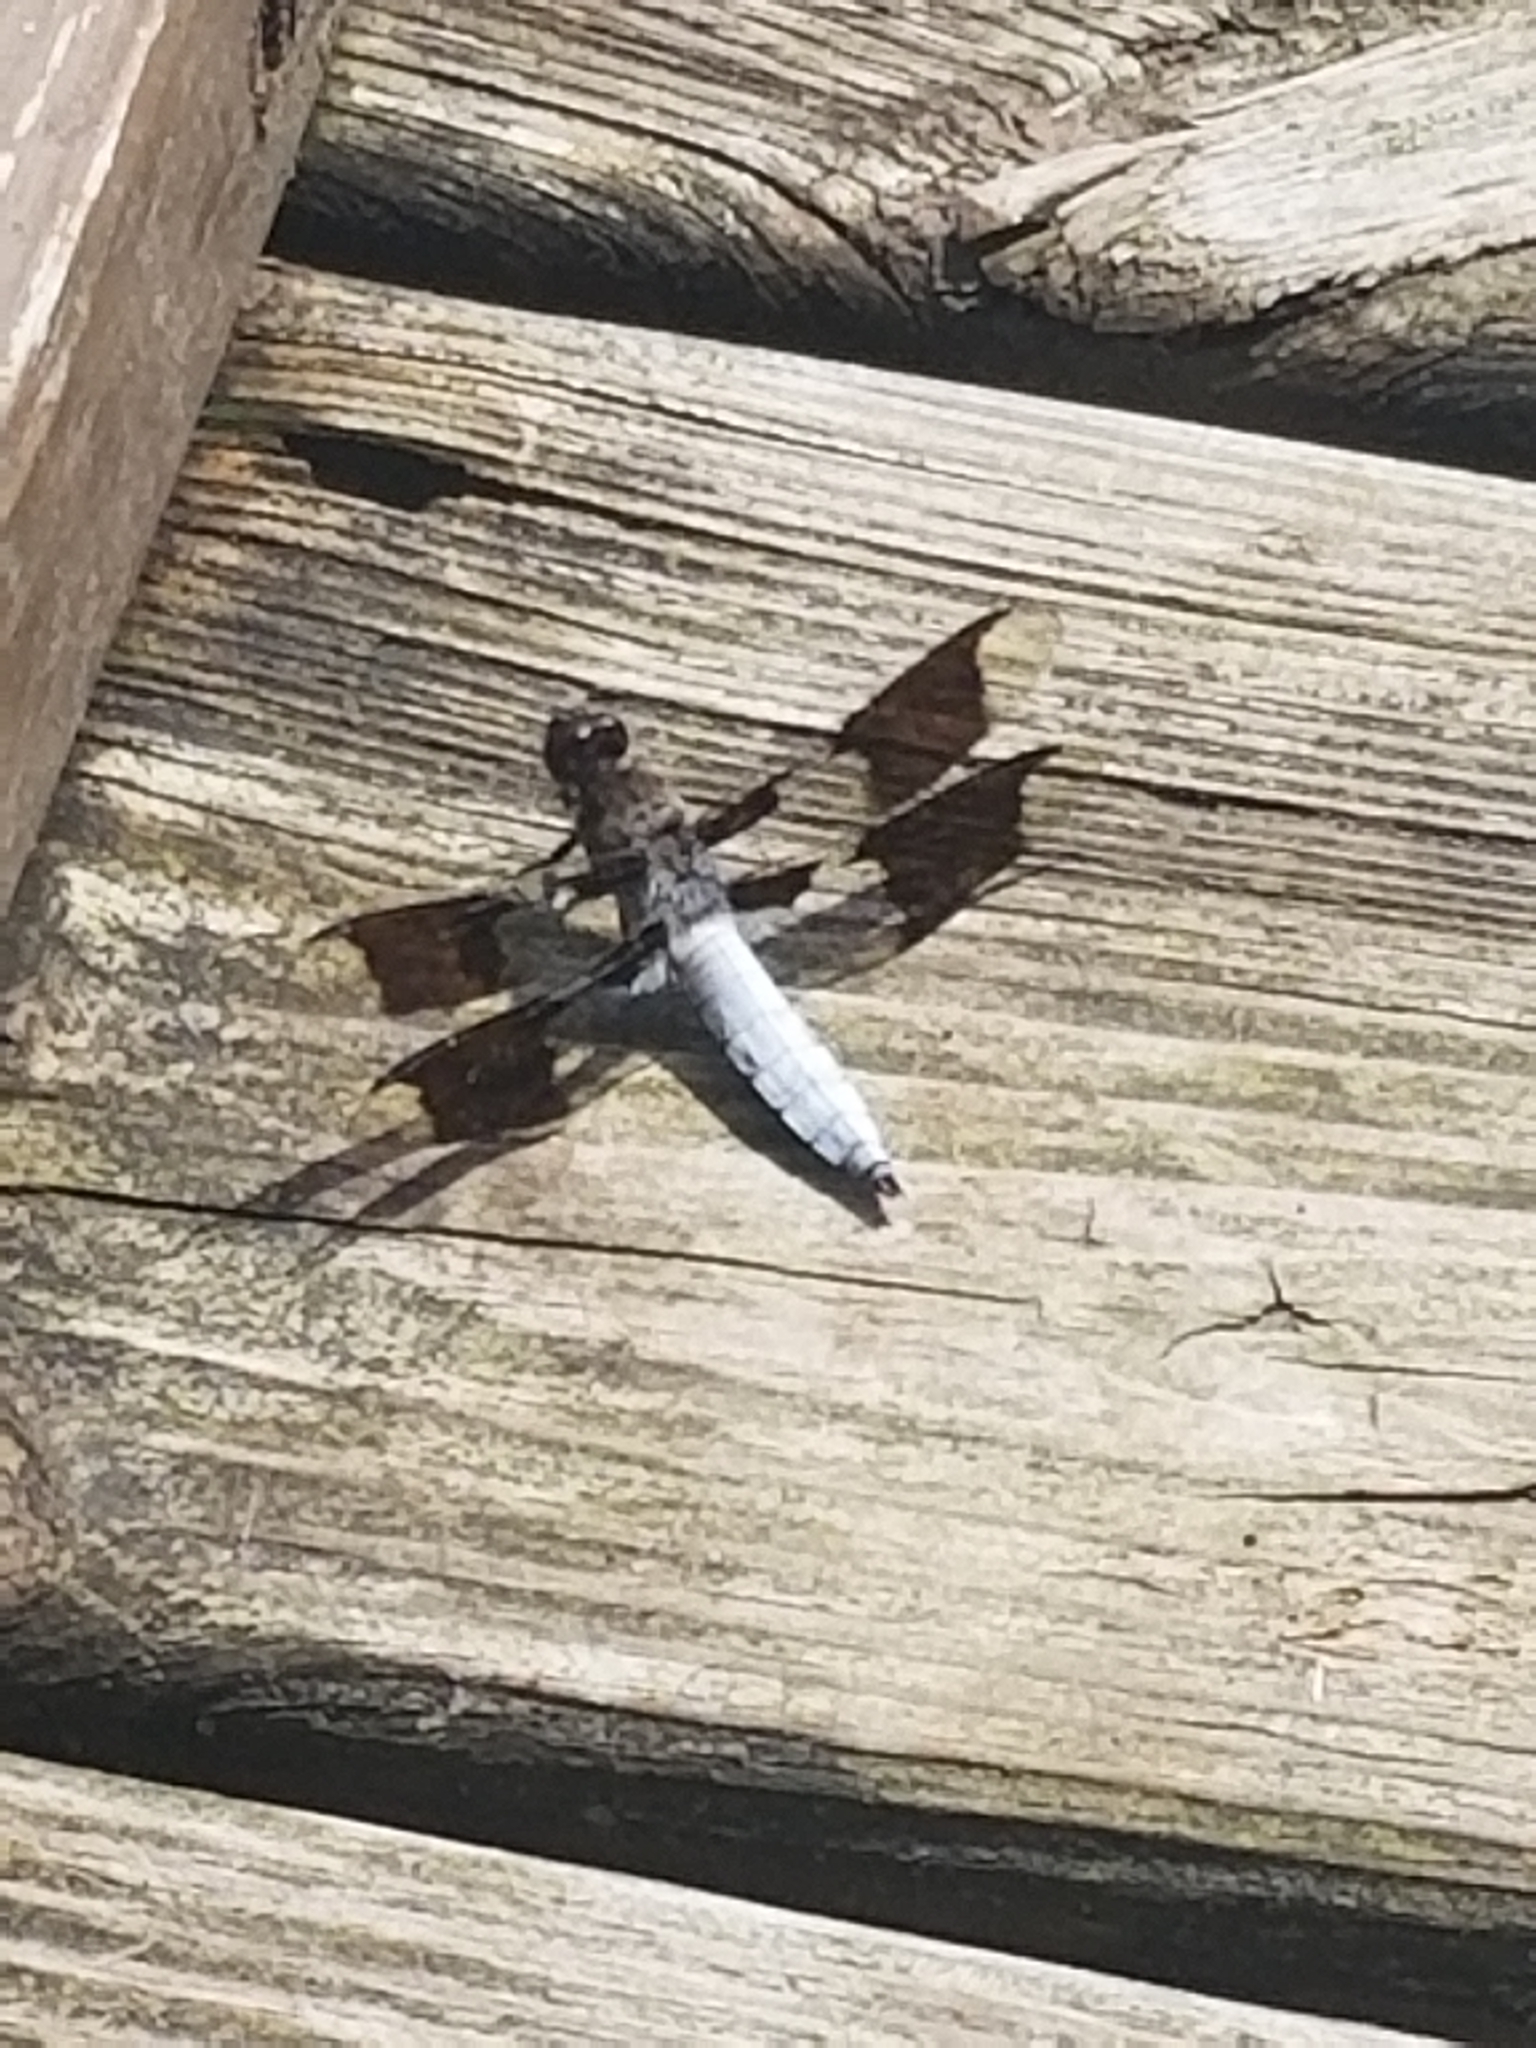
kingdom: Animalia
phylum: Arthropoda
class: Insecta
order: Odonata
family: Libellulidae
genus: Plathemis
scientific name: Plathemis lydia
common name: Common whitetail
